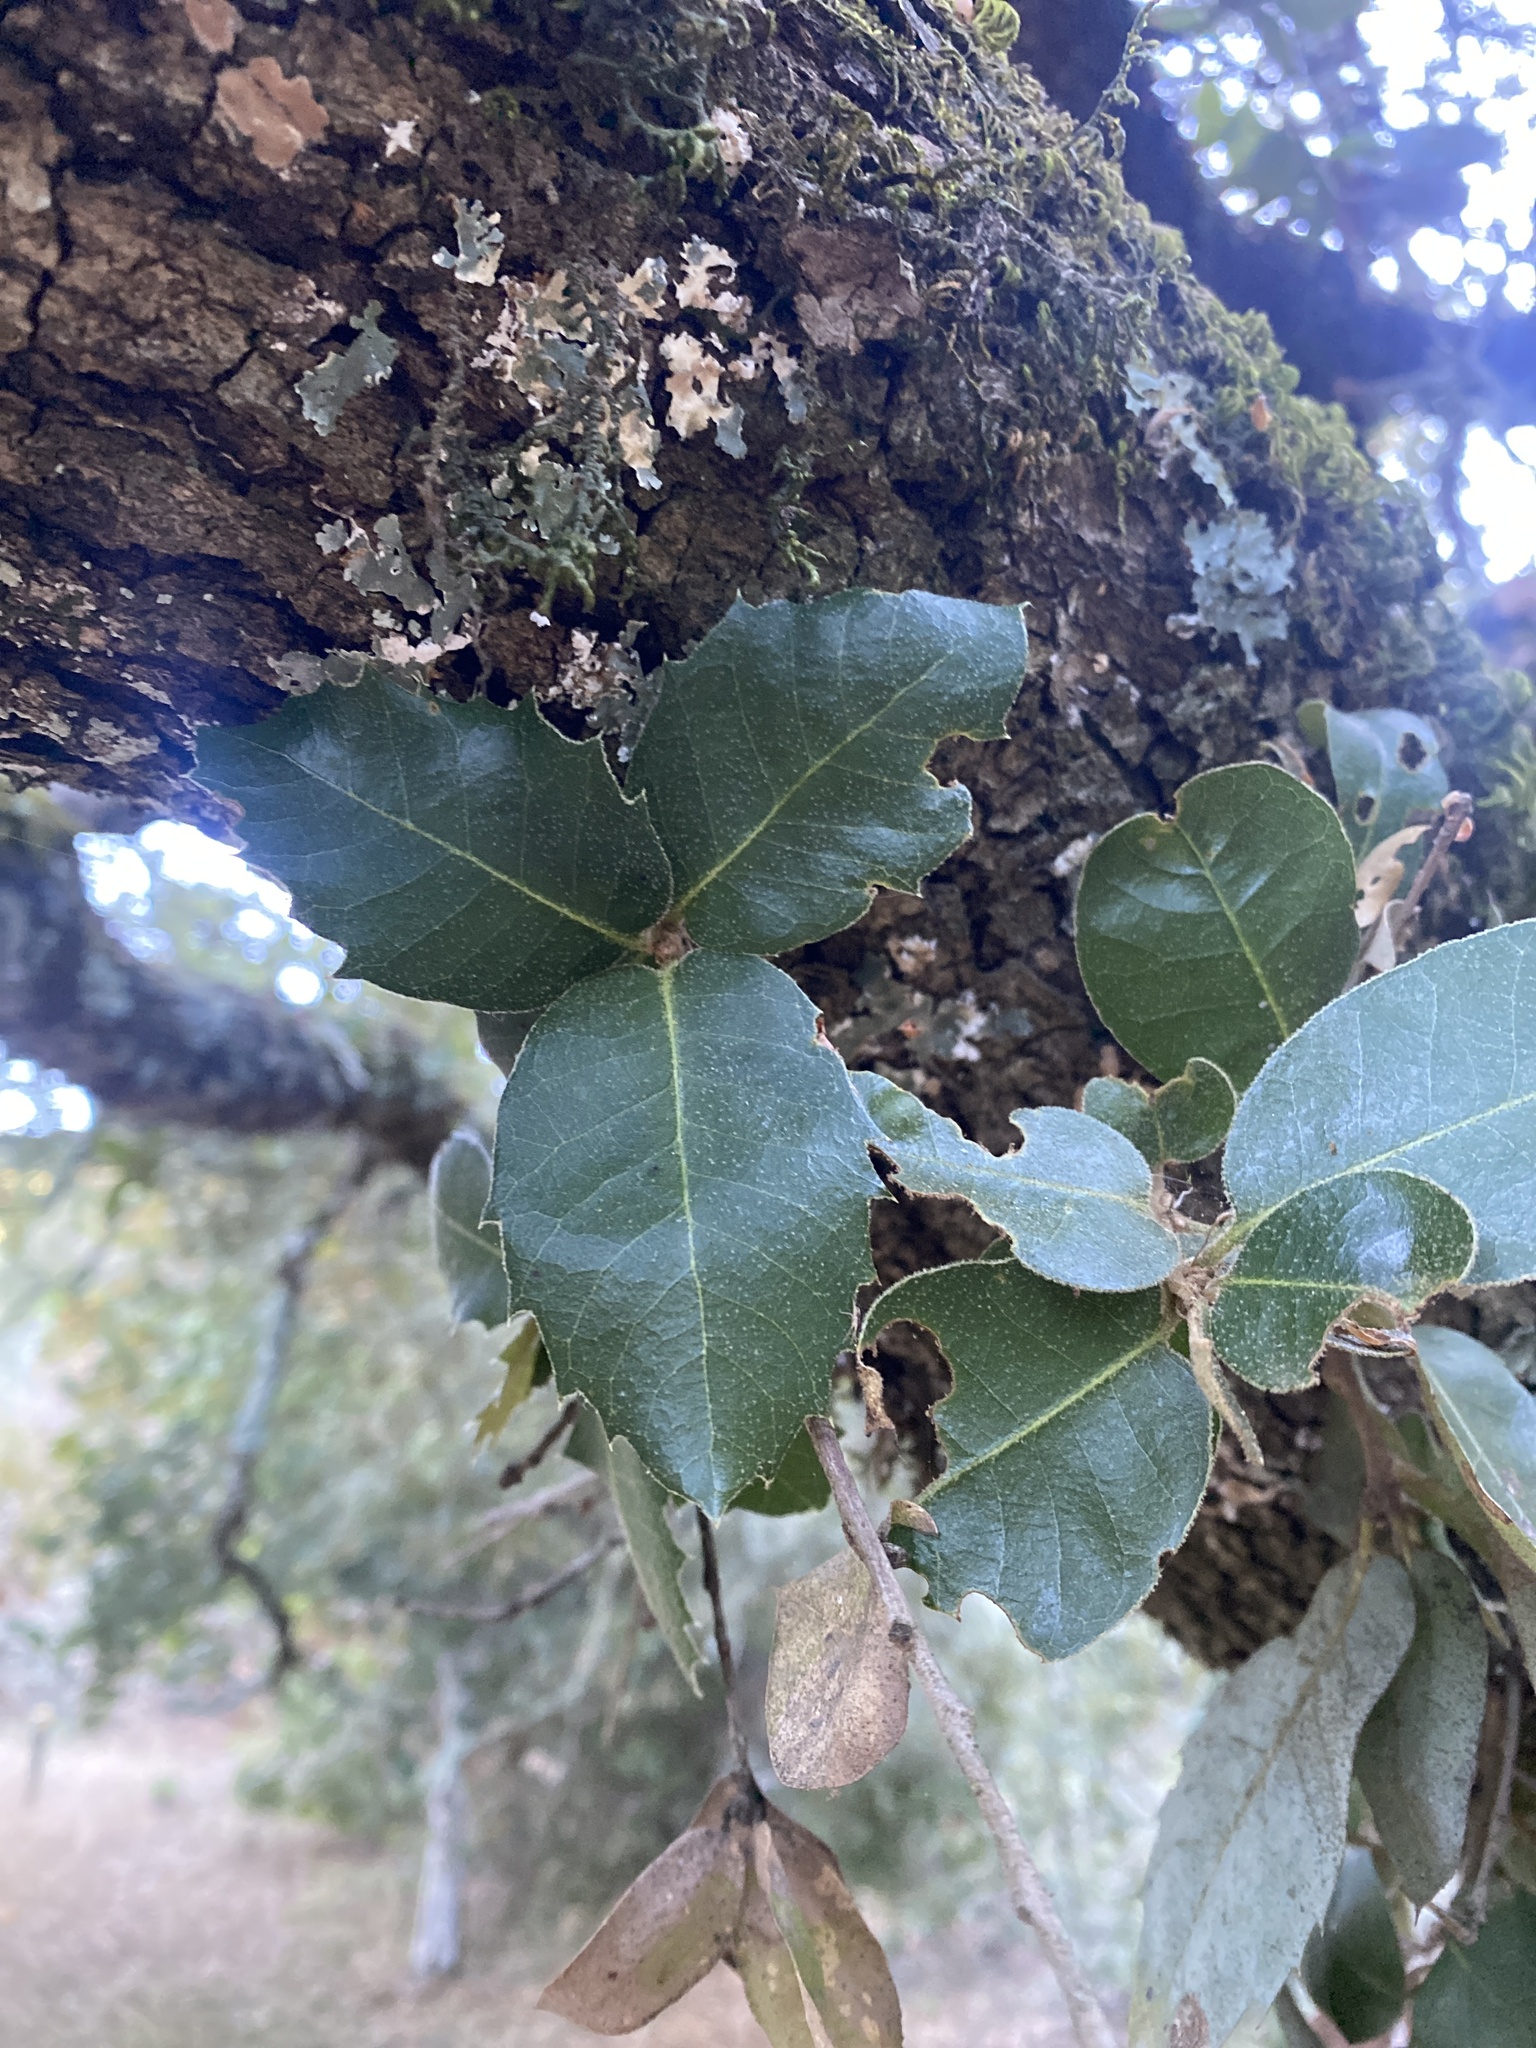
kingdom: Plantae
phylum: Tracheophyta
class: Magnoliopsida
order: Fagales
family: Fagaceae
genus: Quercus
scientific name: Quercus chrysolepis
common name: Canyon live oak
